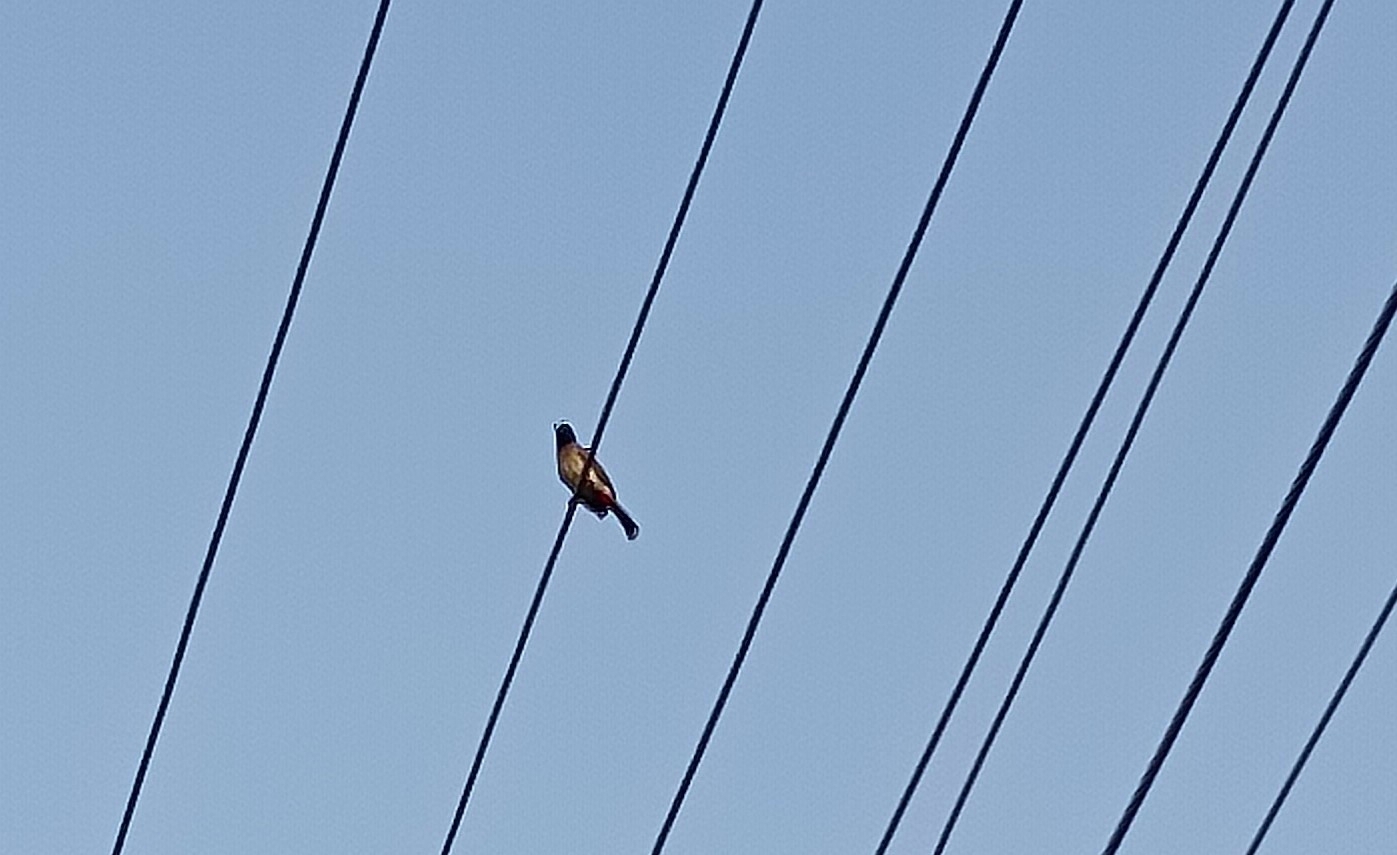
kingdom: Animalia
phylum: Chordata
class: Aves
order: Passeriformes
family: Pycnonotidae
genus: Pycnonotus
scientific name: Pycnonotus cafer
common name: Red-vented bulbul
